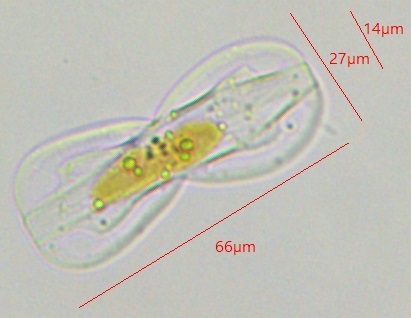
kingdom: Chromista
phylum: Ochrophyta
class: Bacillariophyceae
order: Surirellales
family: Entomoneidaceae
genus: Entomoneis
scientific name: Entomoneis paludosa
